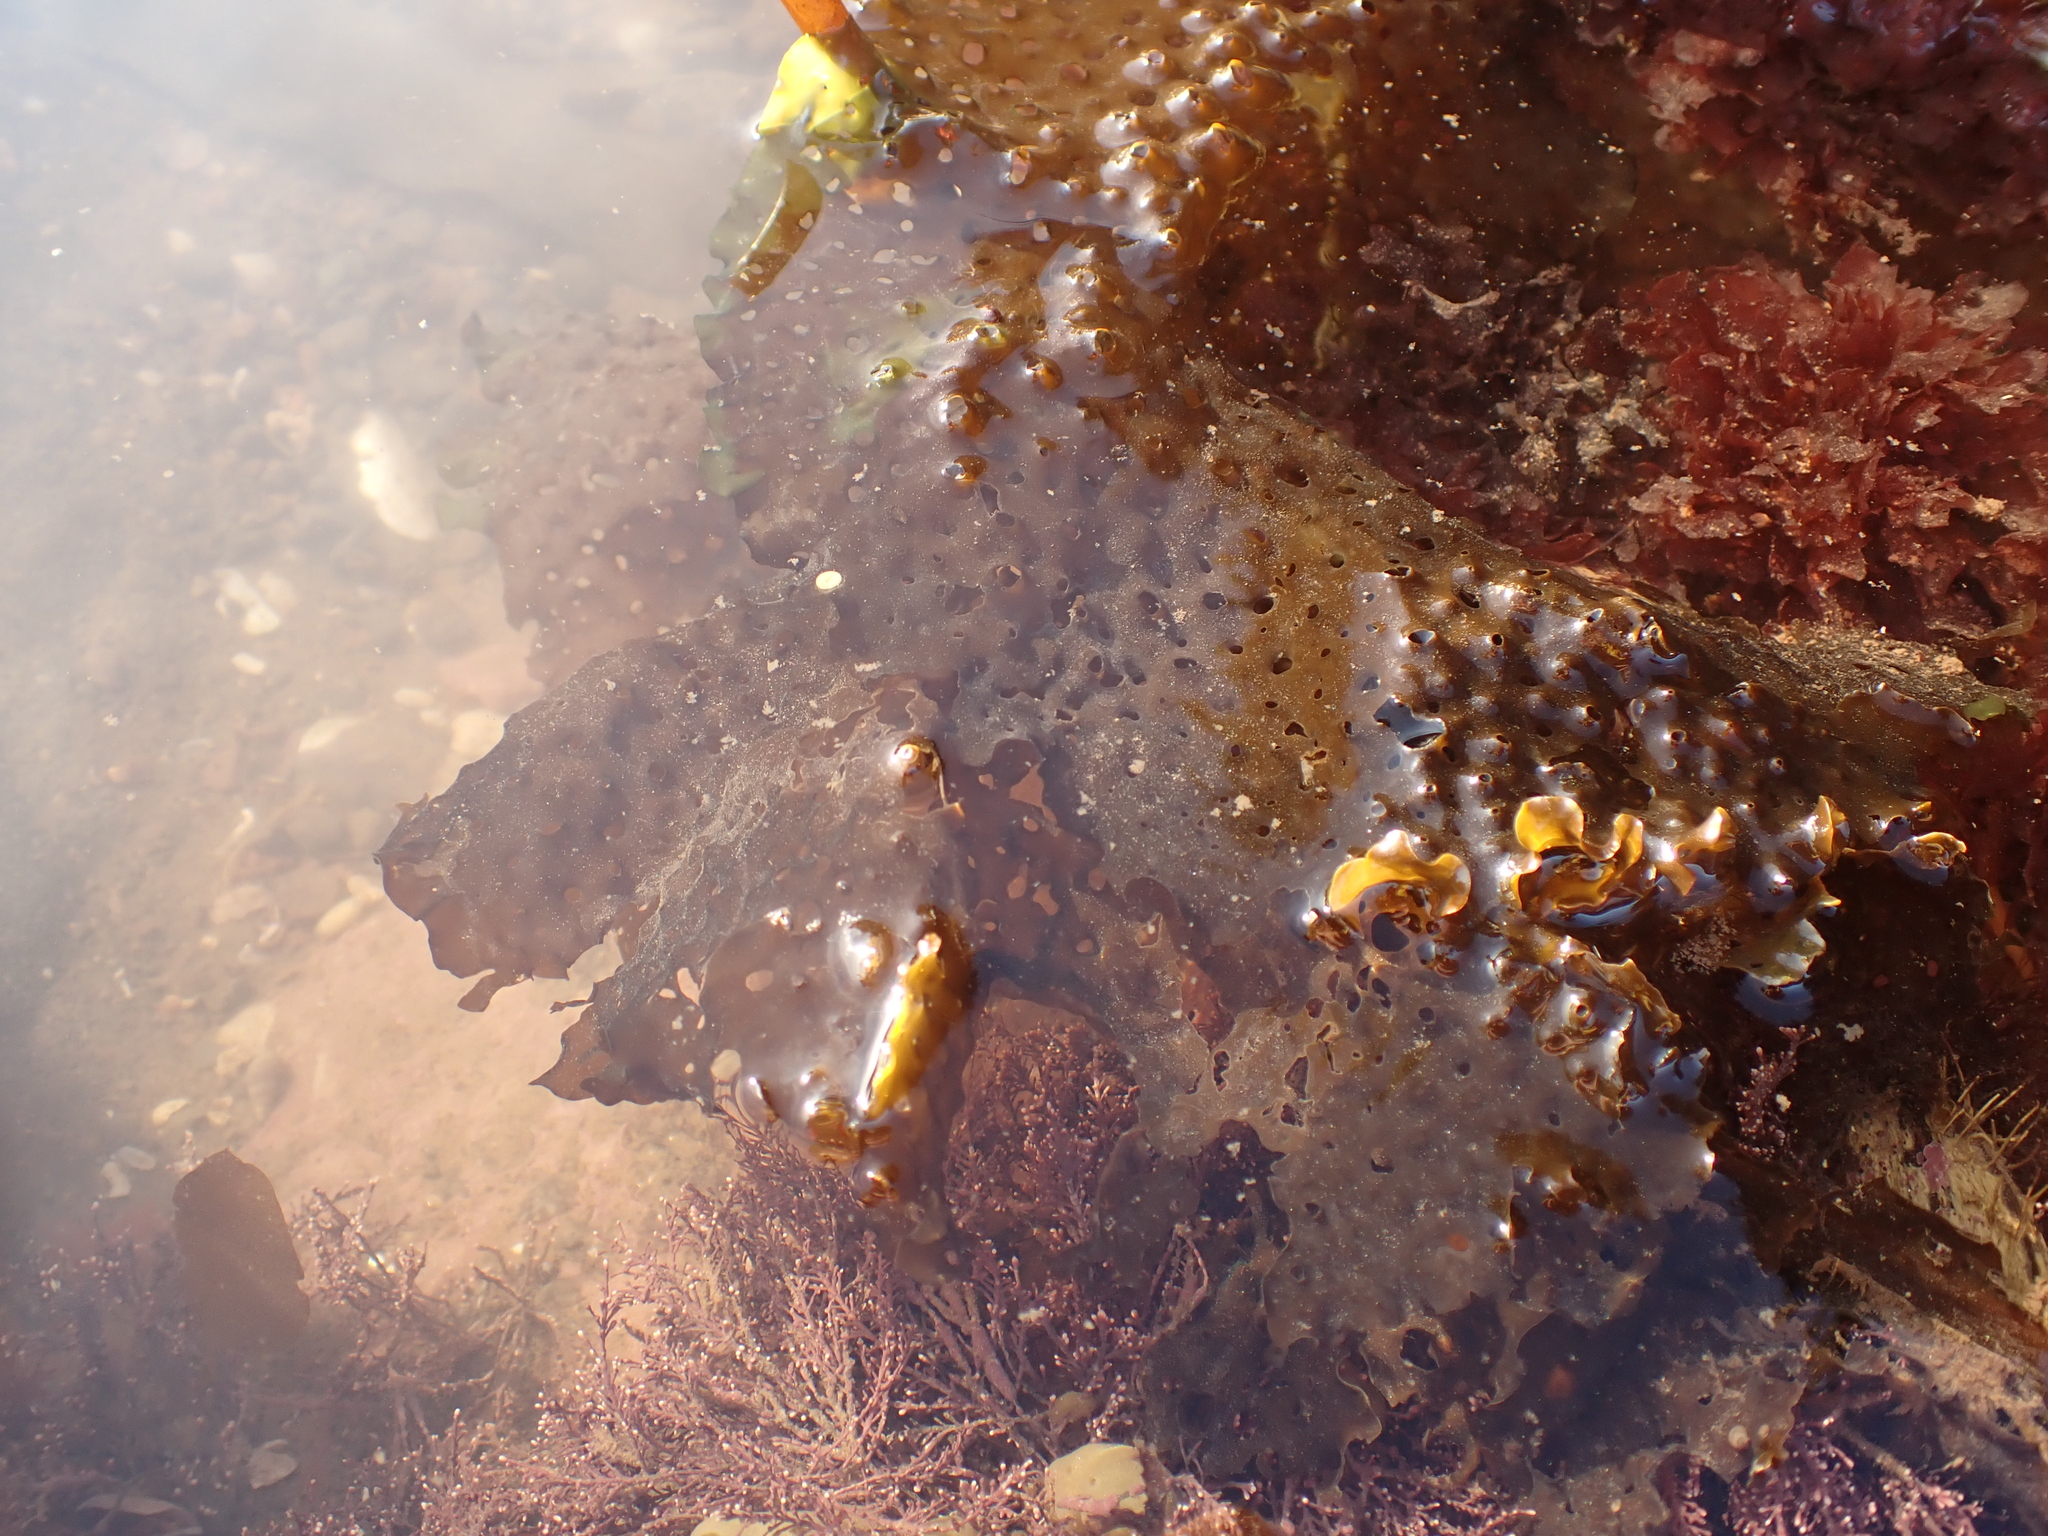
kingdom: Chromista
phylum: Ochrophyta
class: Phaeophyceae
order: Laminariales
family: Costariaceae
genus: Agarum
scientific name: Agarum clathratum
